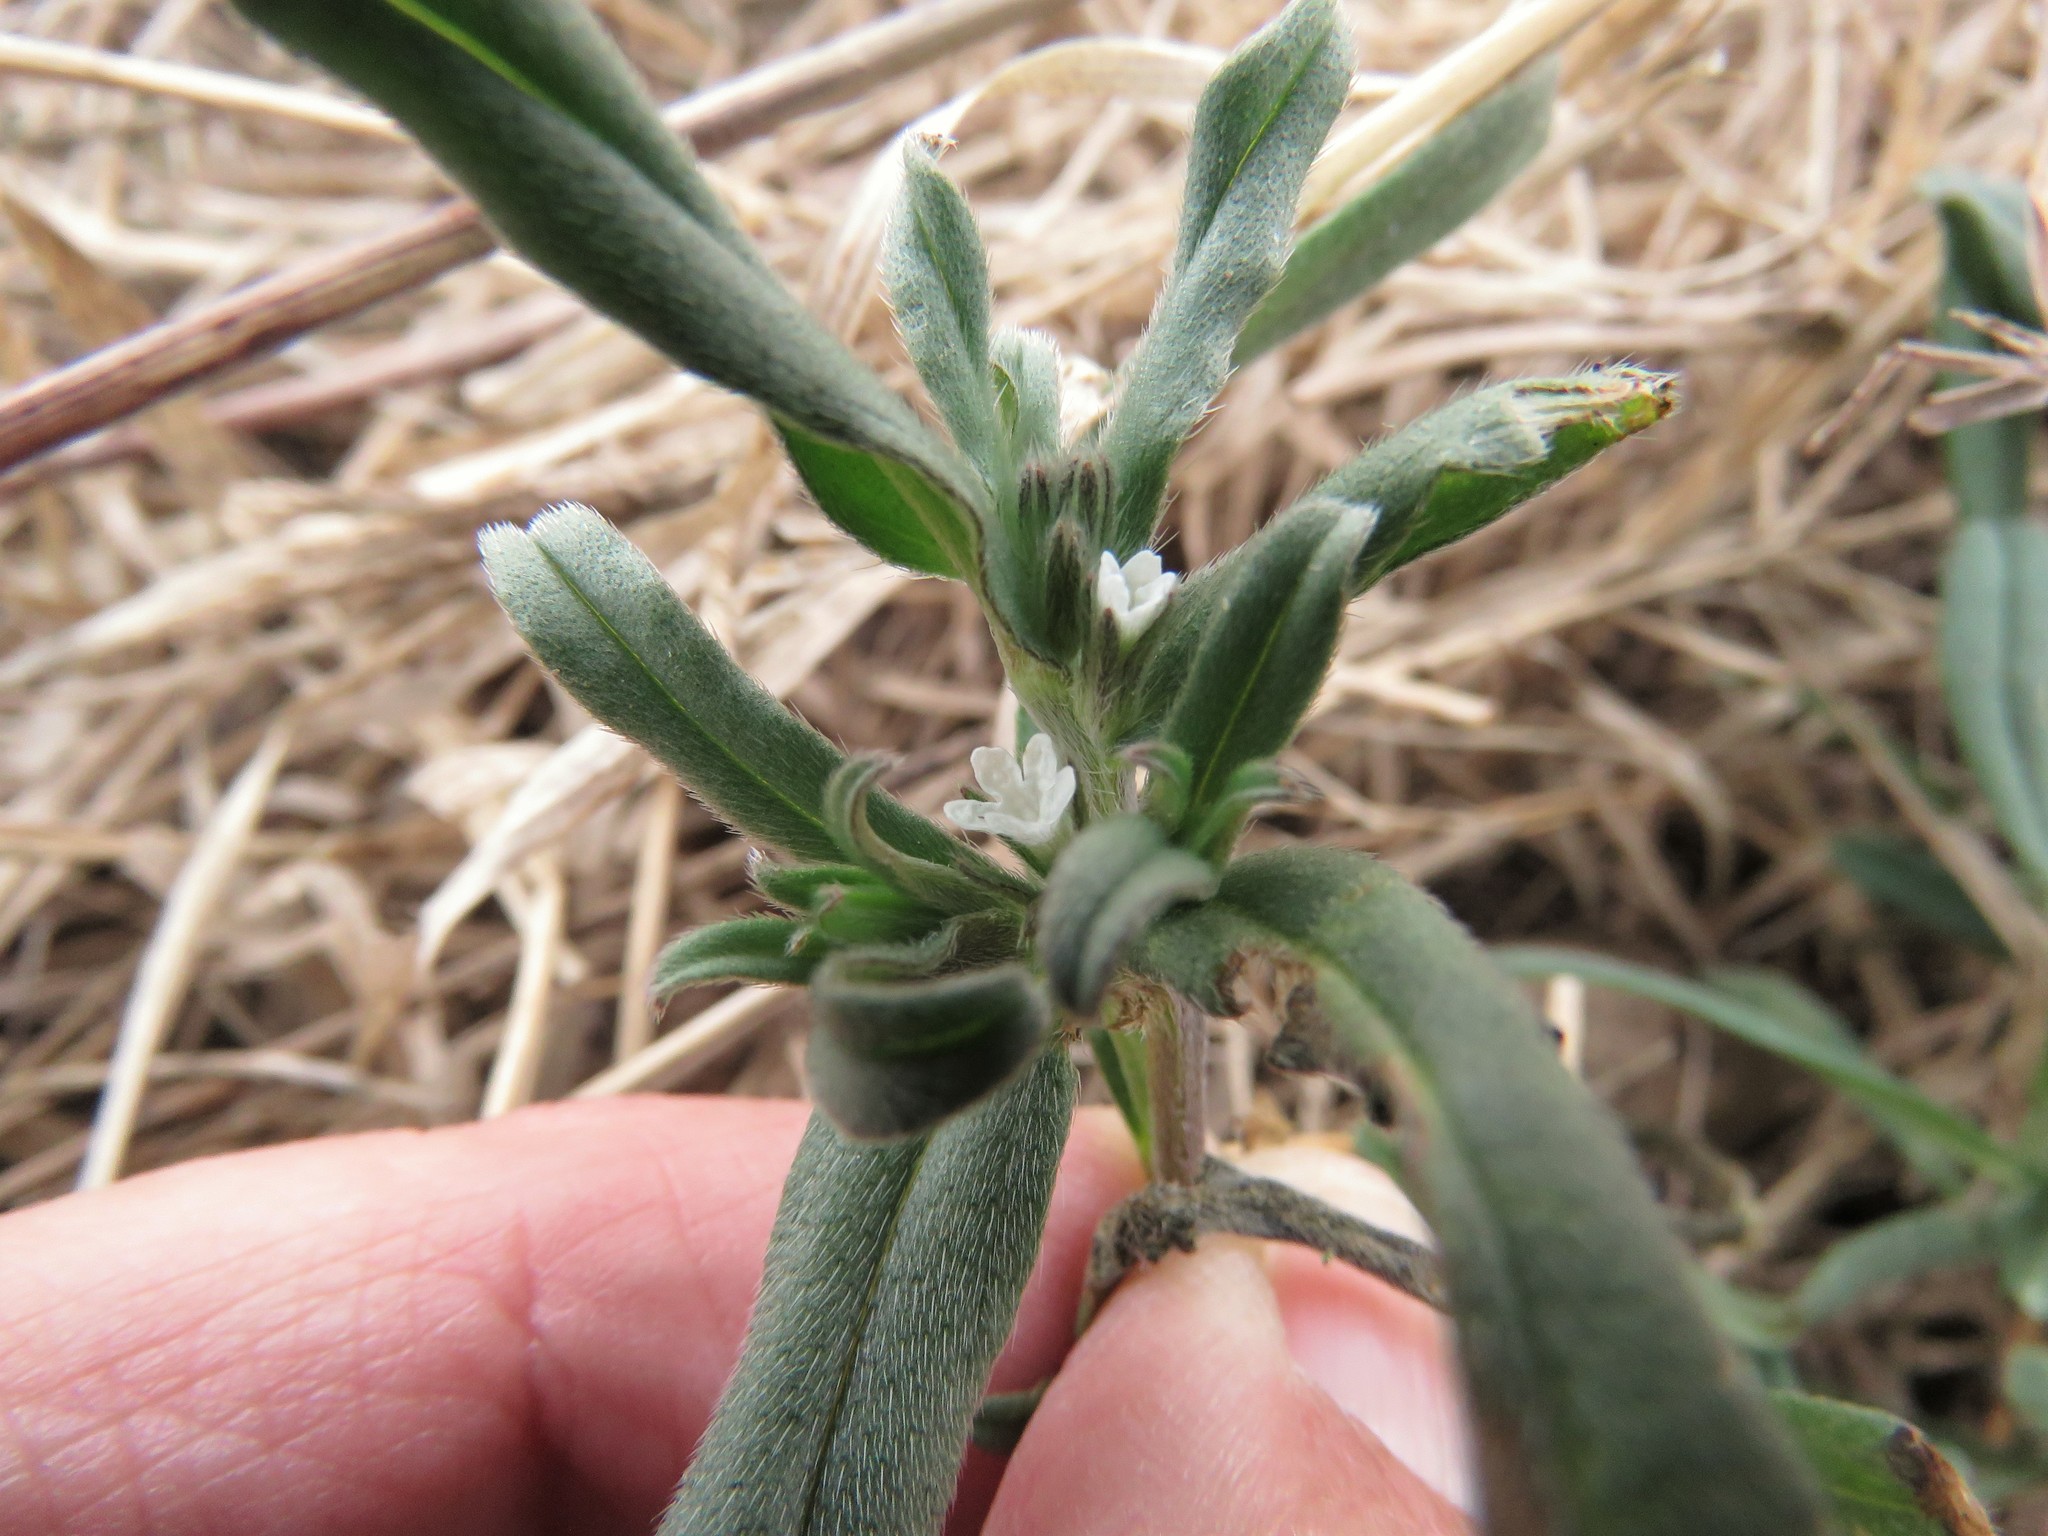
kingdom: Plantae
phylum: Tracheophyta
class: Magnoliopsida
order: Boraginales
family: Boraginaceae
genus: Buglossoides
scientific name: Buglossoides arvensis
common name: Corn gromwell
